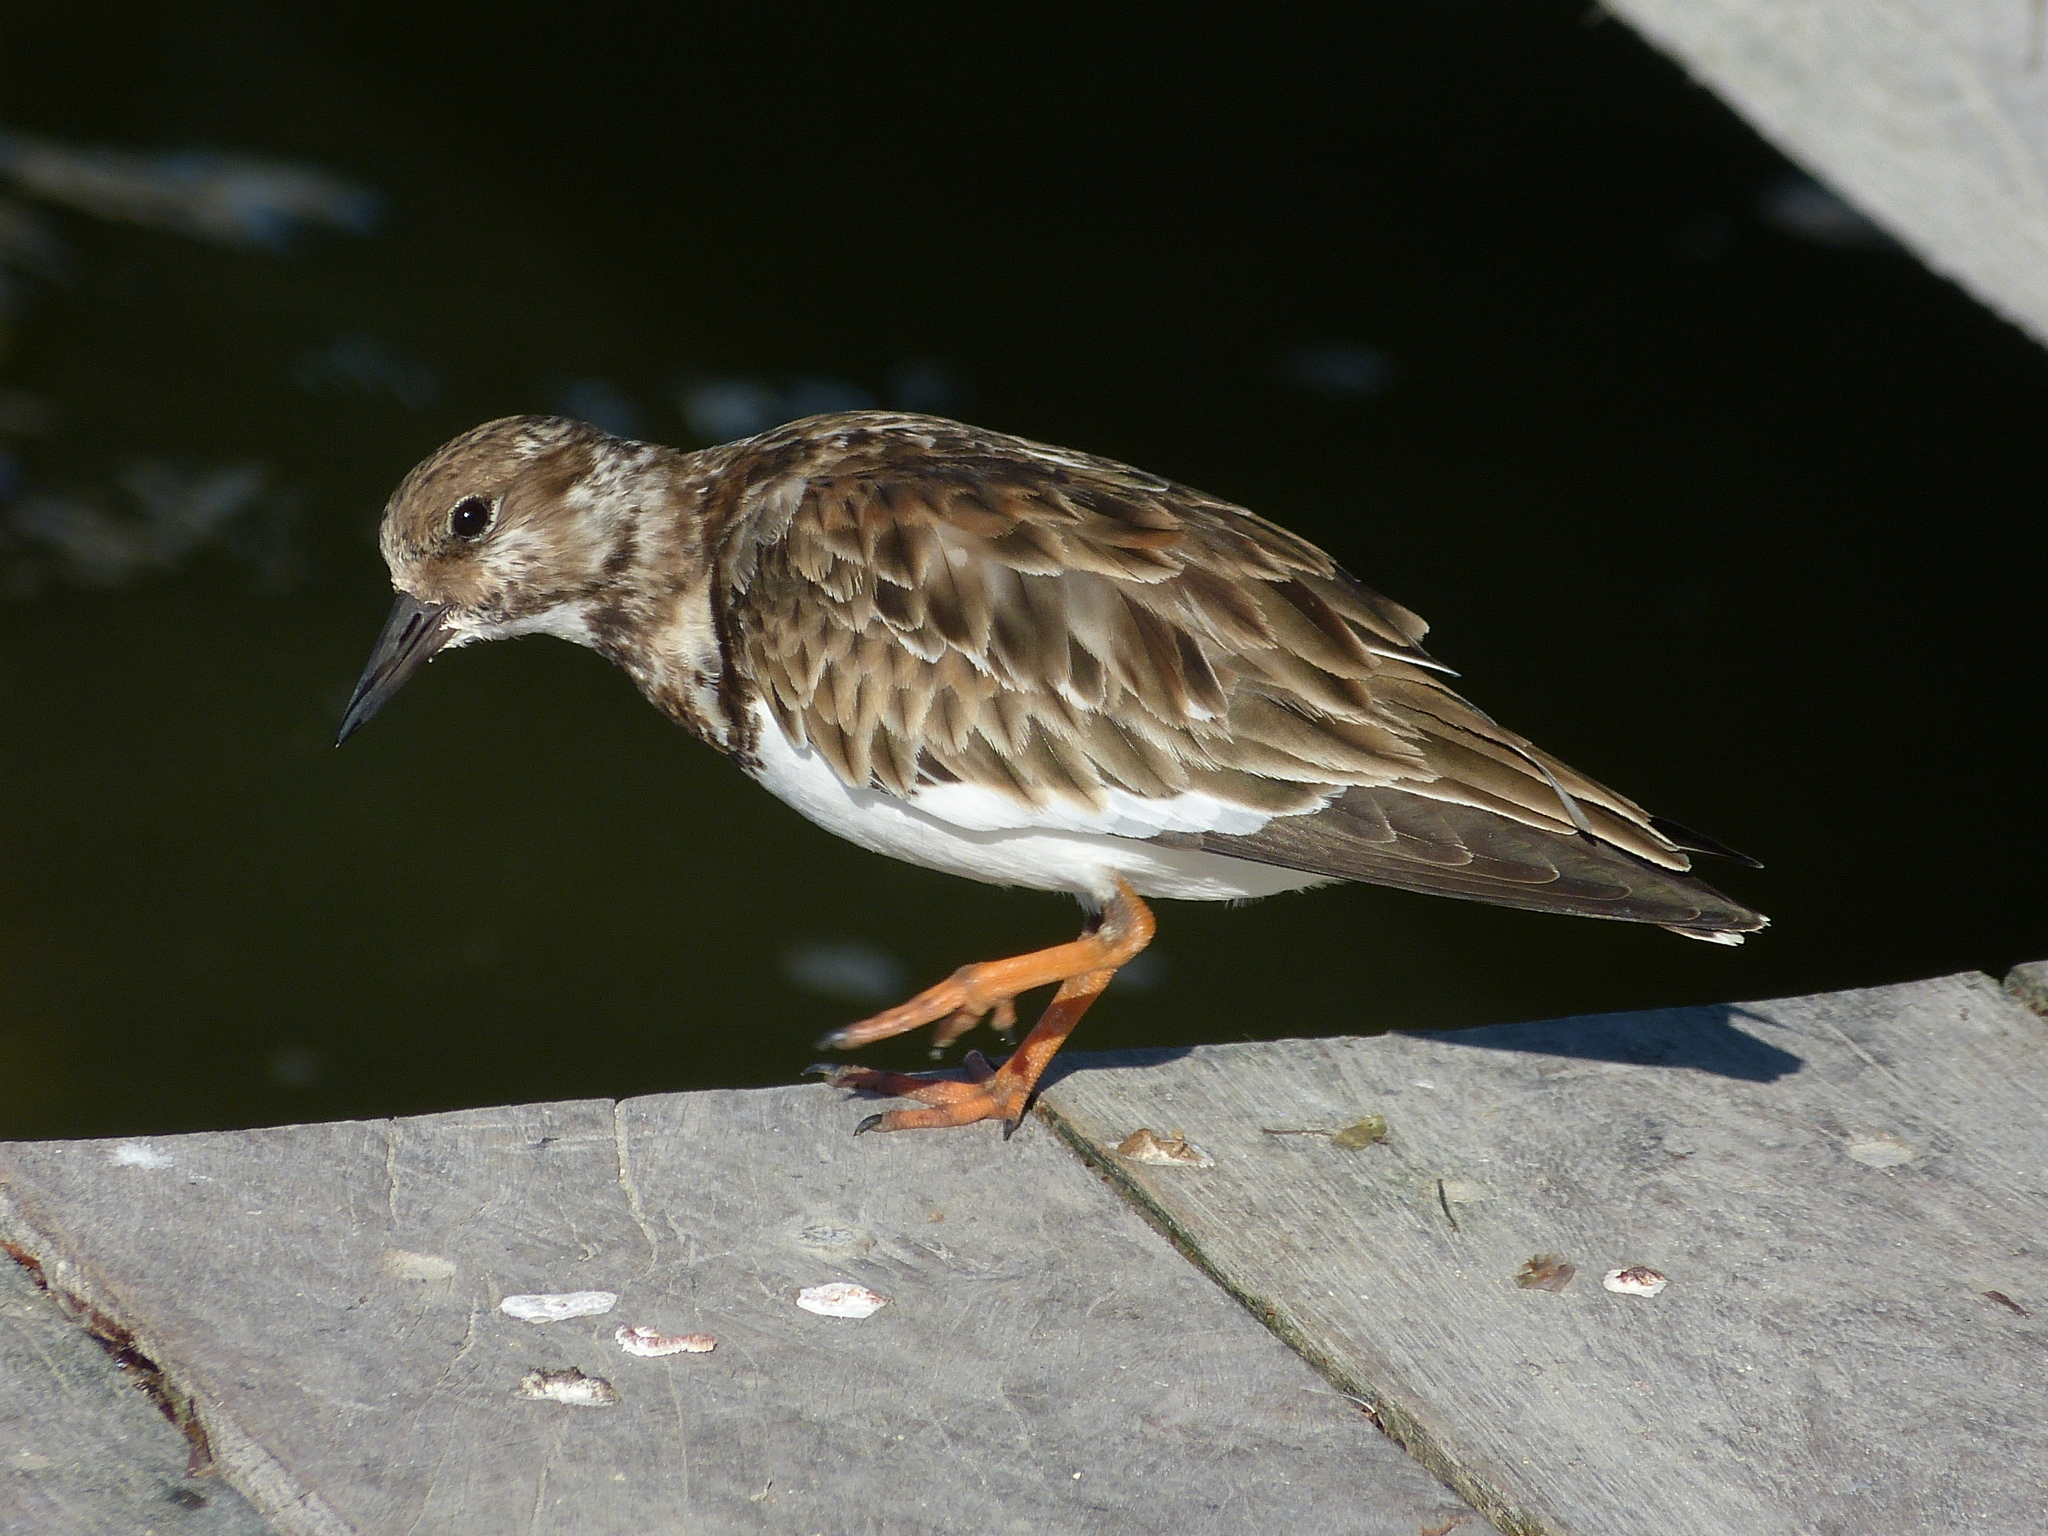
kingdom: Animalia
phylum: Chordata
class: Aves
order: Charadriiformes
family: Scolopacidae
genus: Arenaria
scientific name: Arenaria interpres
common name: Ruddy turnstone
